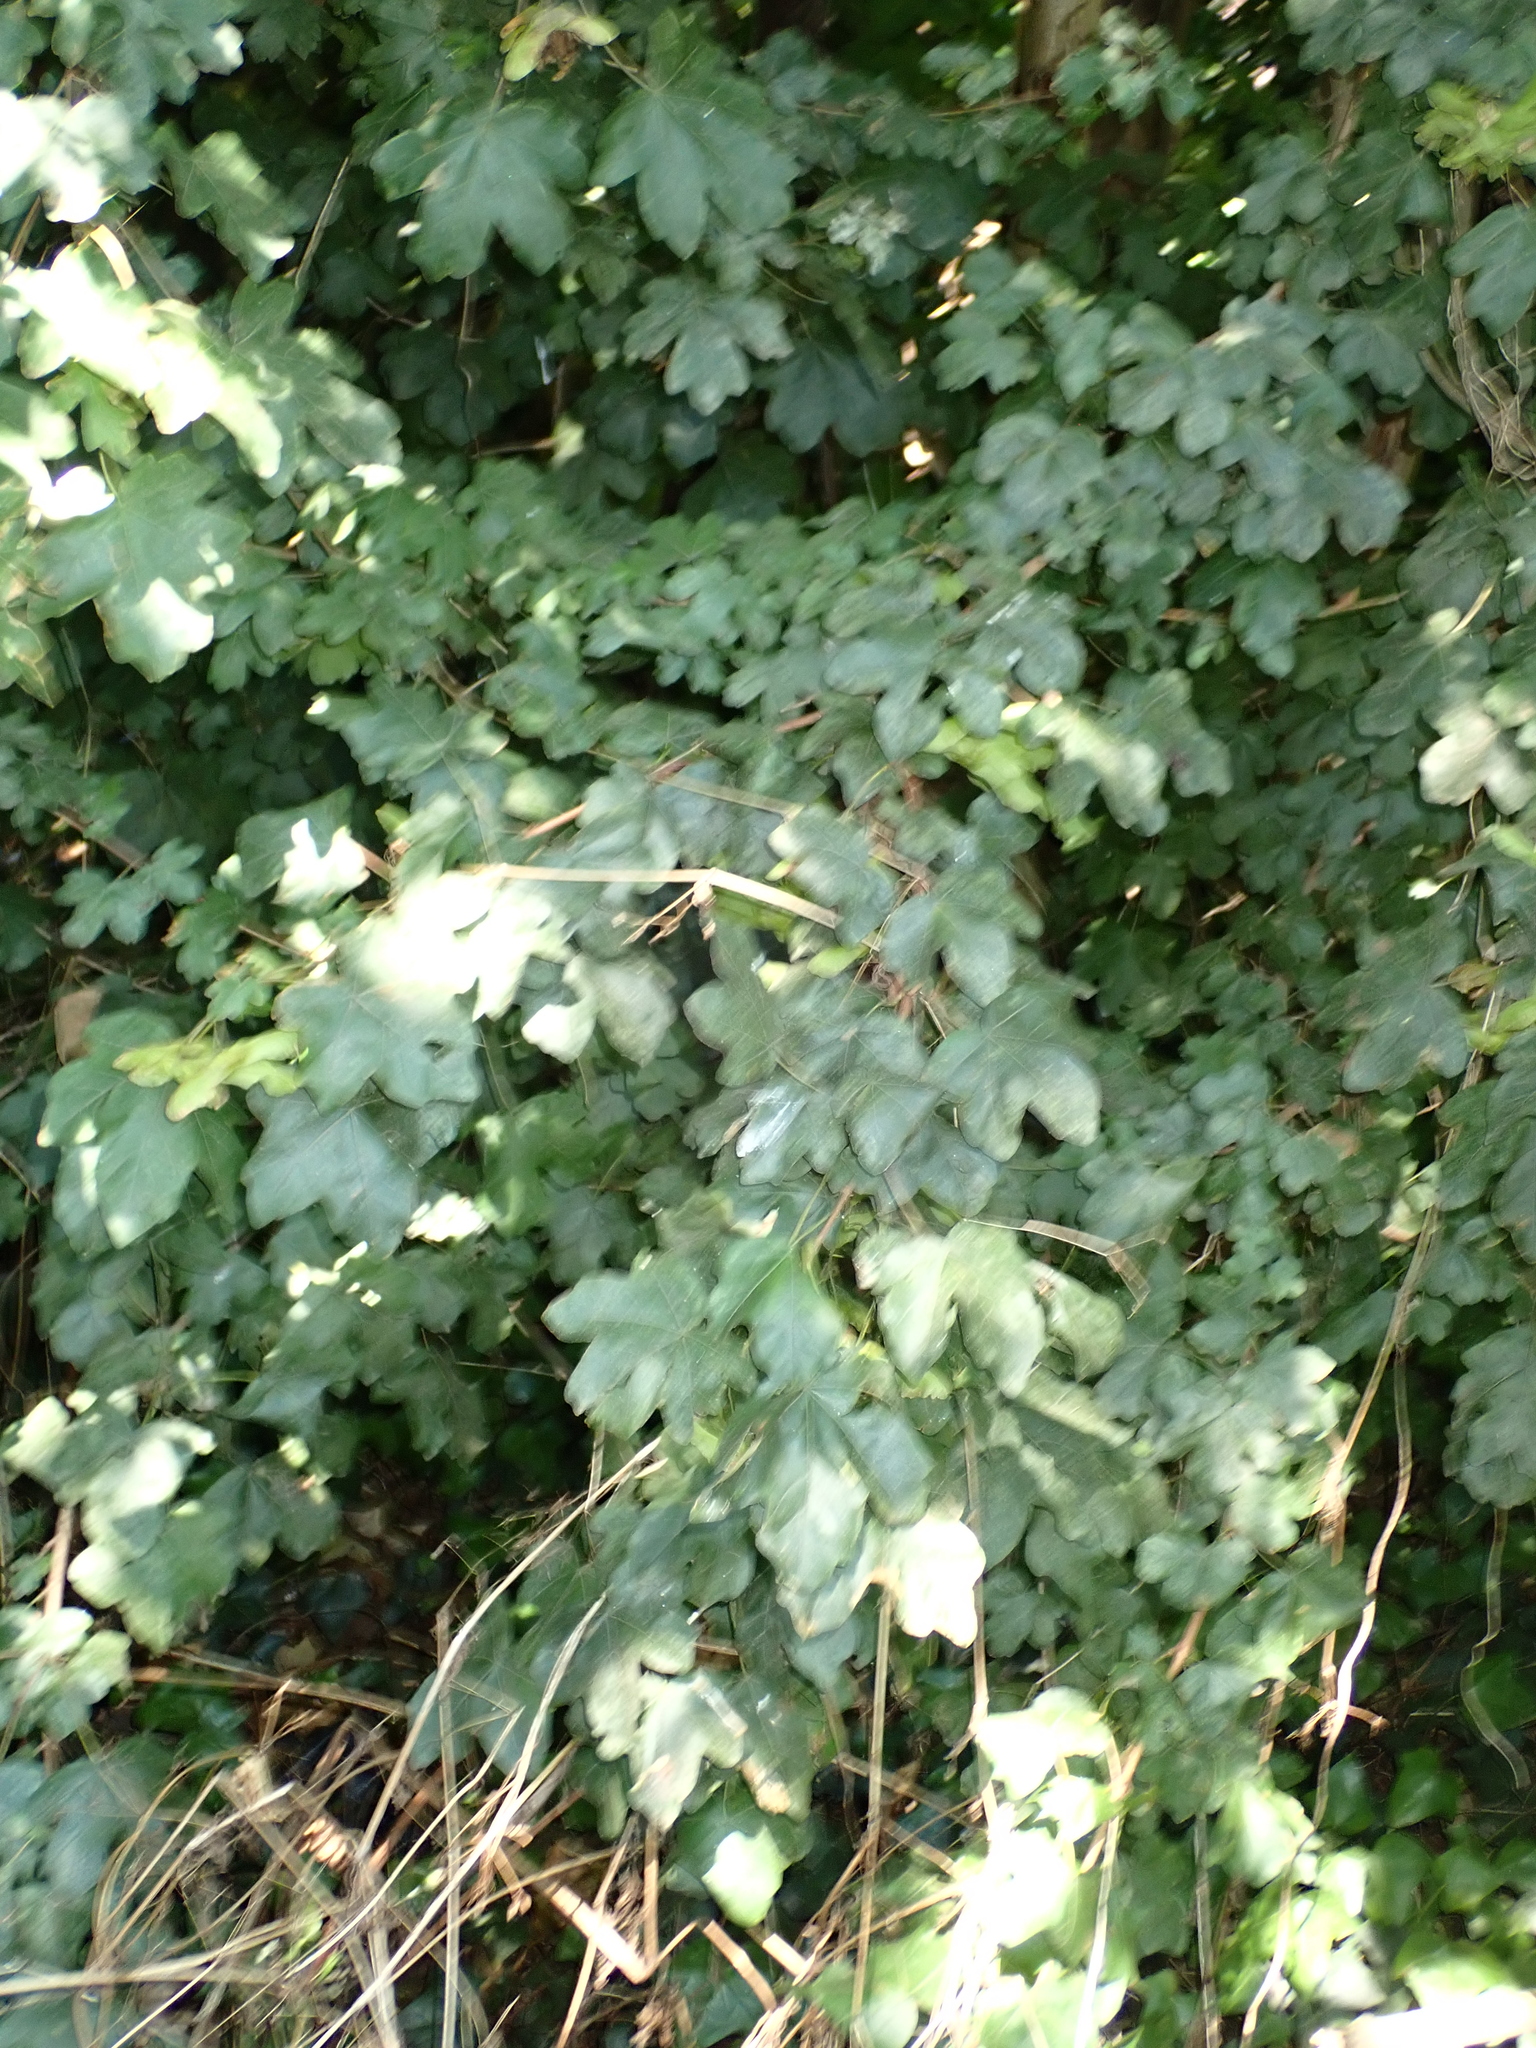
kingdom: Plantae
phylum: Tracheophyta
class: Magnoliopsida
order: Sapindales
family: Sapindaceae
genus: Acer
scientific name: Acer campestre
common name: Field maple
